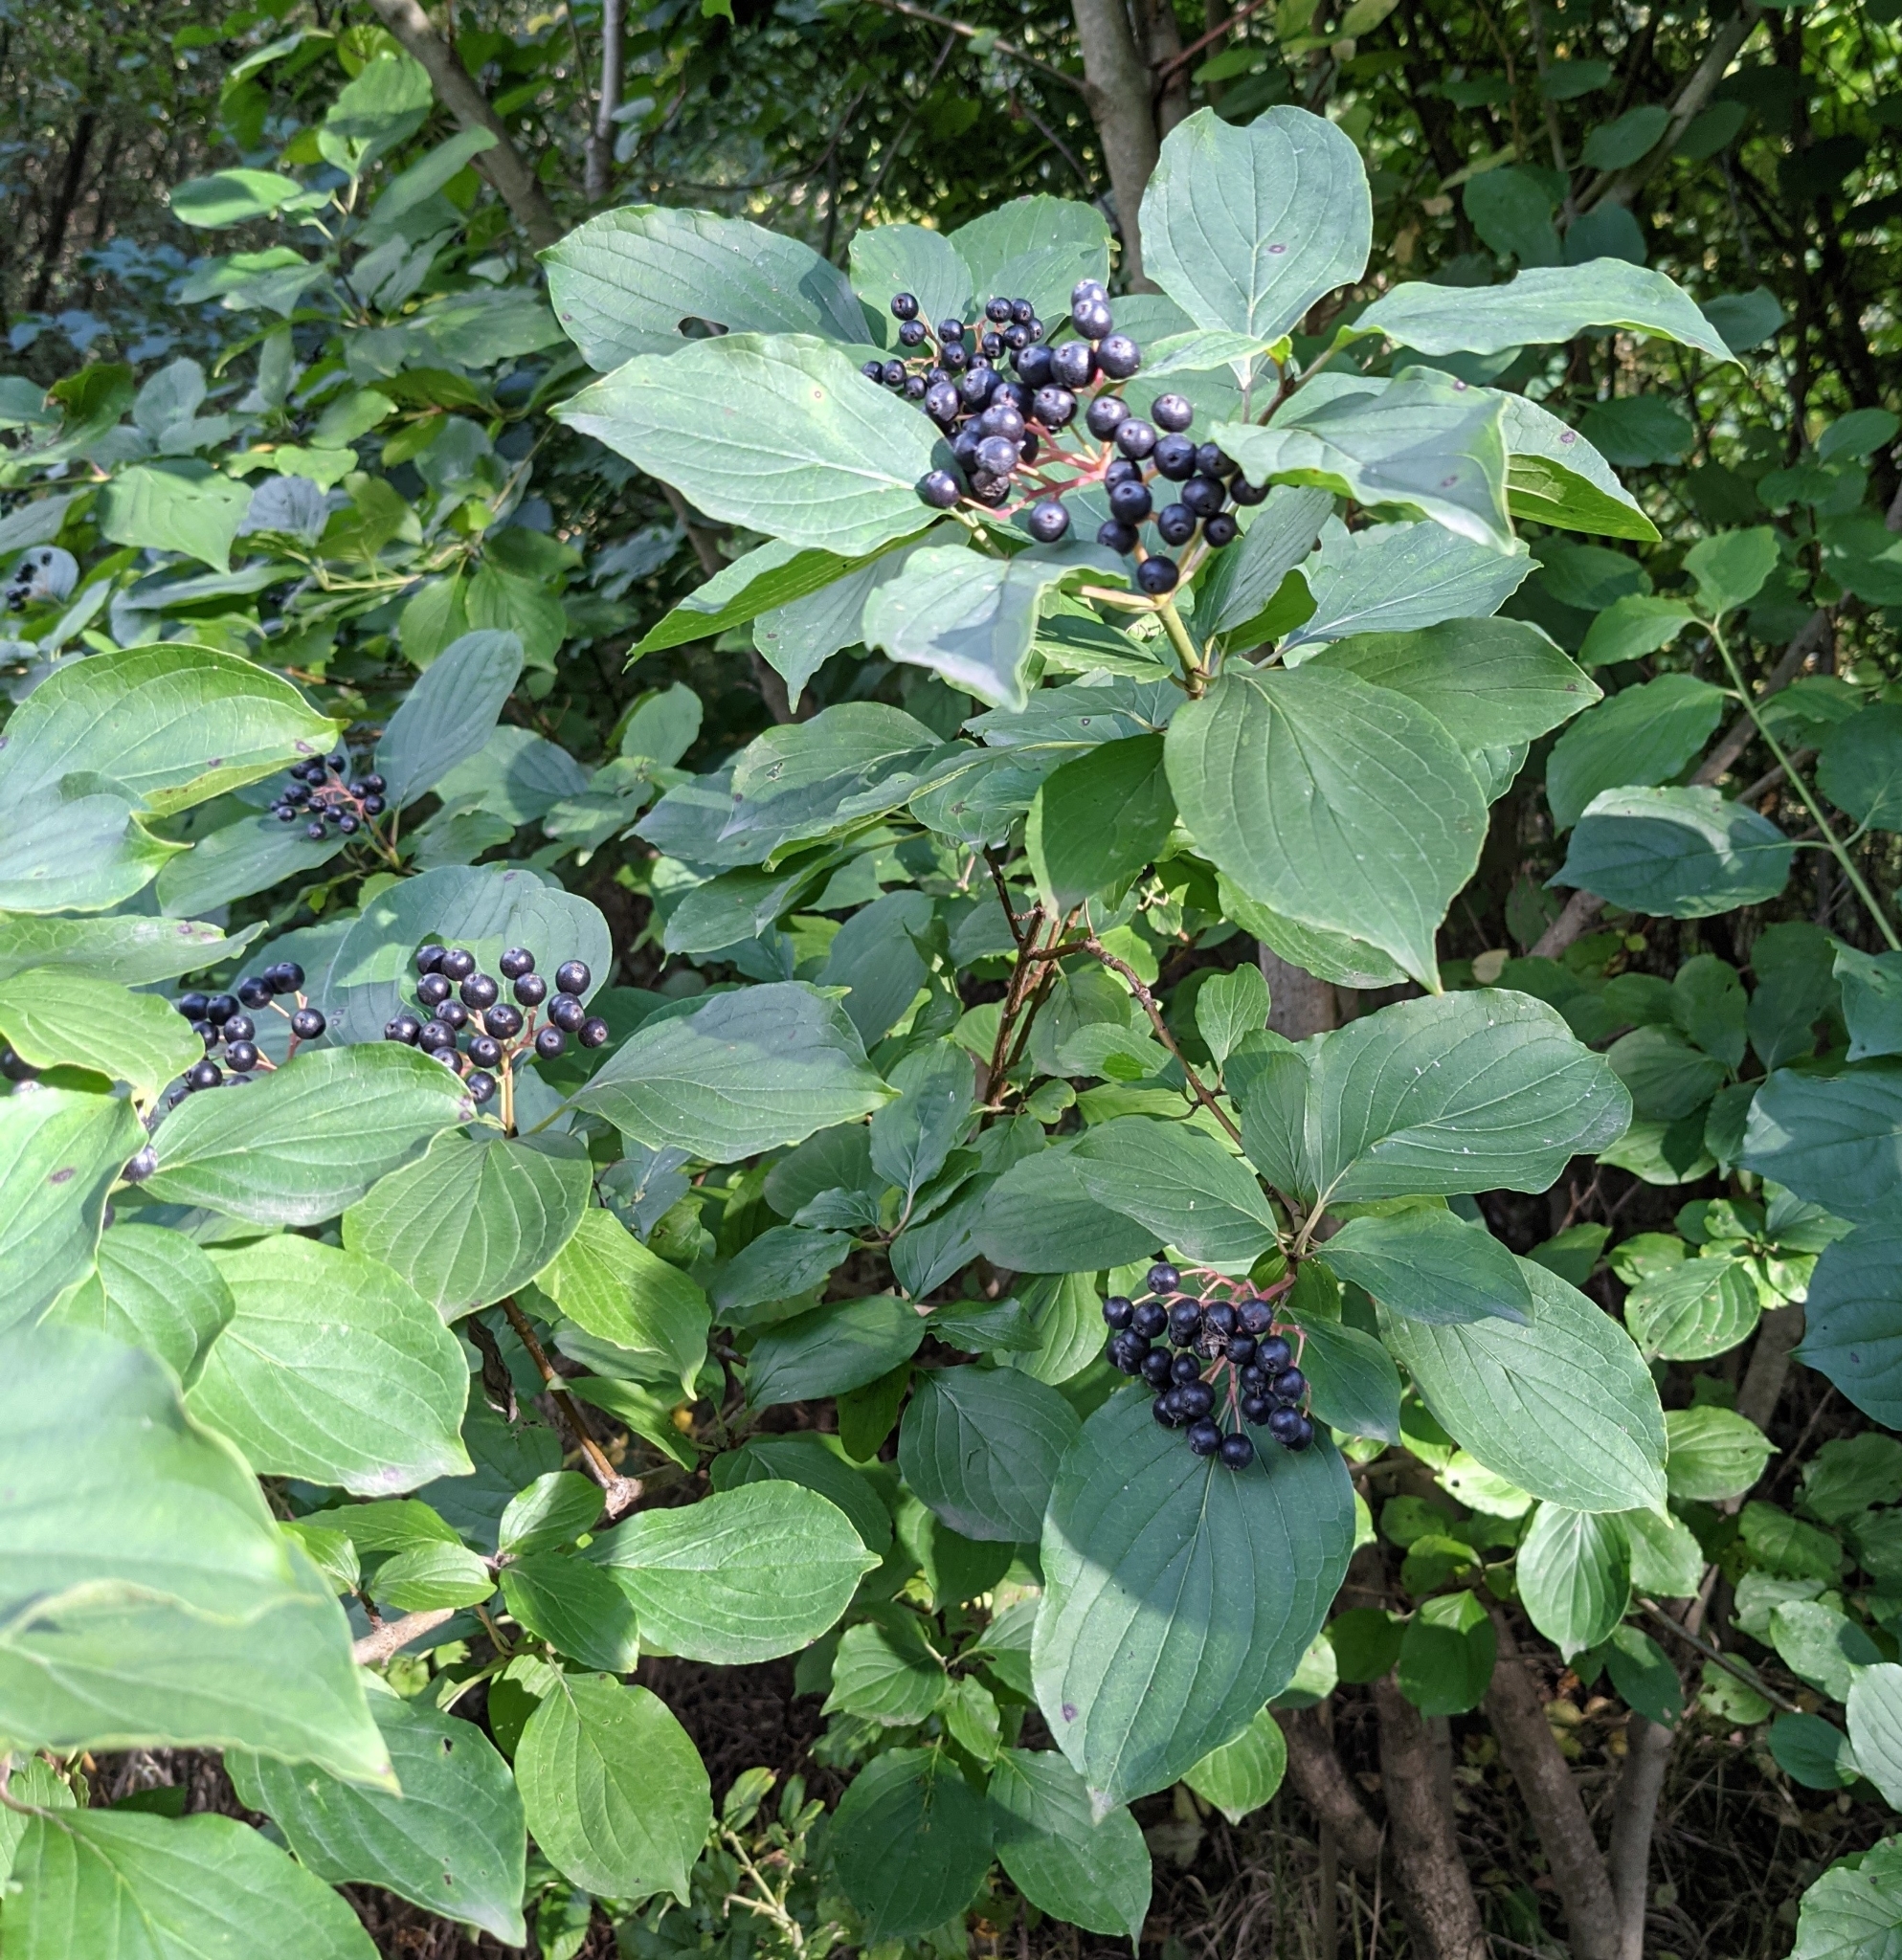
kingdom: Plantae
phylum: Tracheophyta
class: Magnoliopsida
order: Cornales
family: Cornaceae
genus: Cornus
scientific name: Cornus sanguinea
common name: Dogwood
